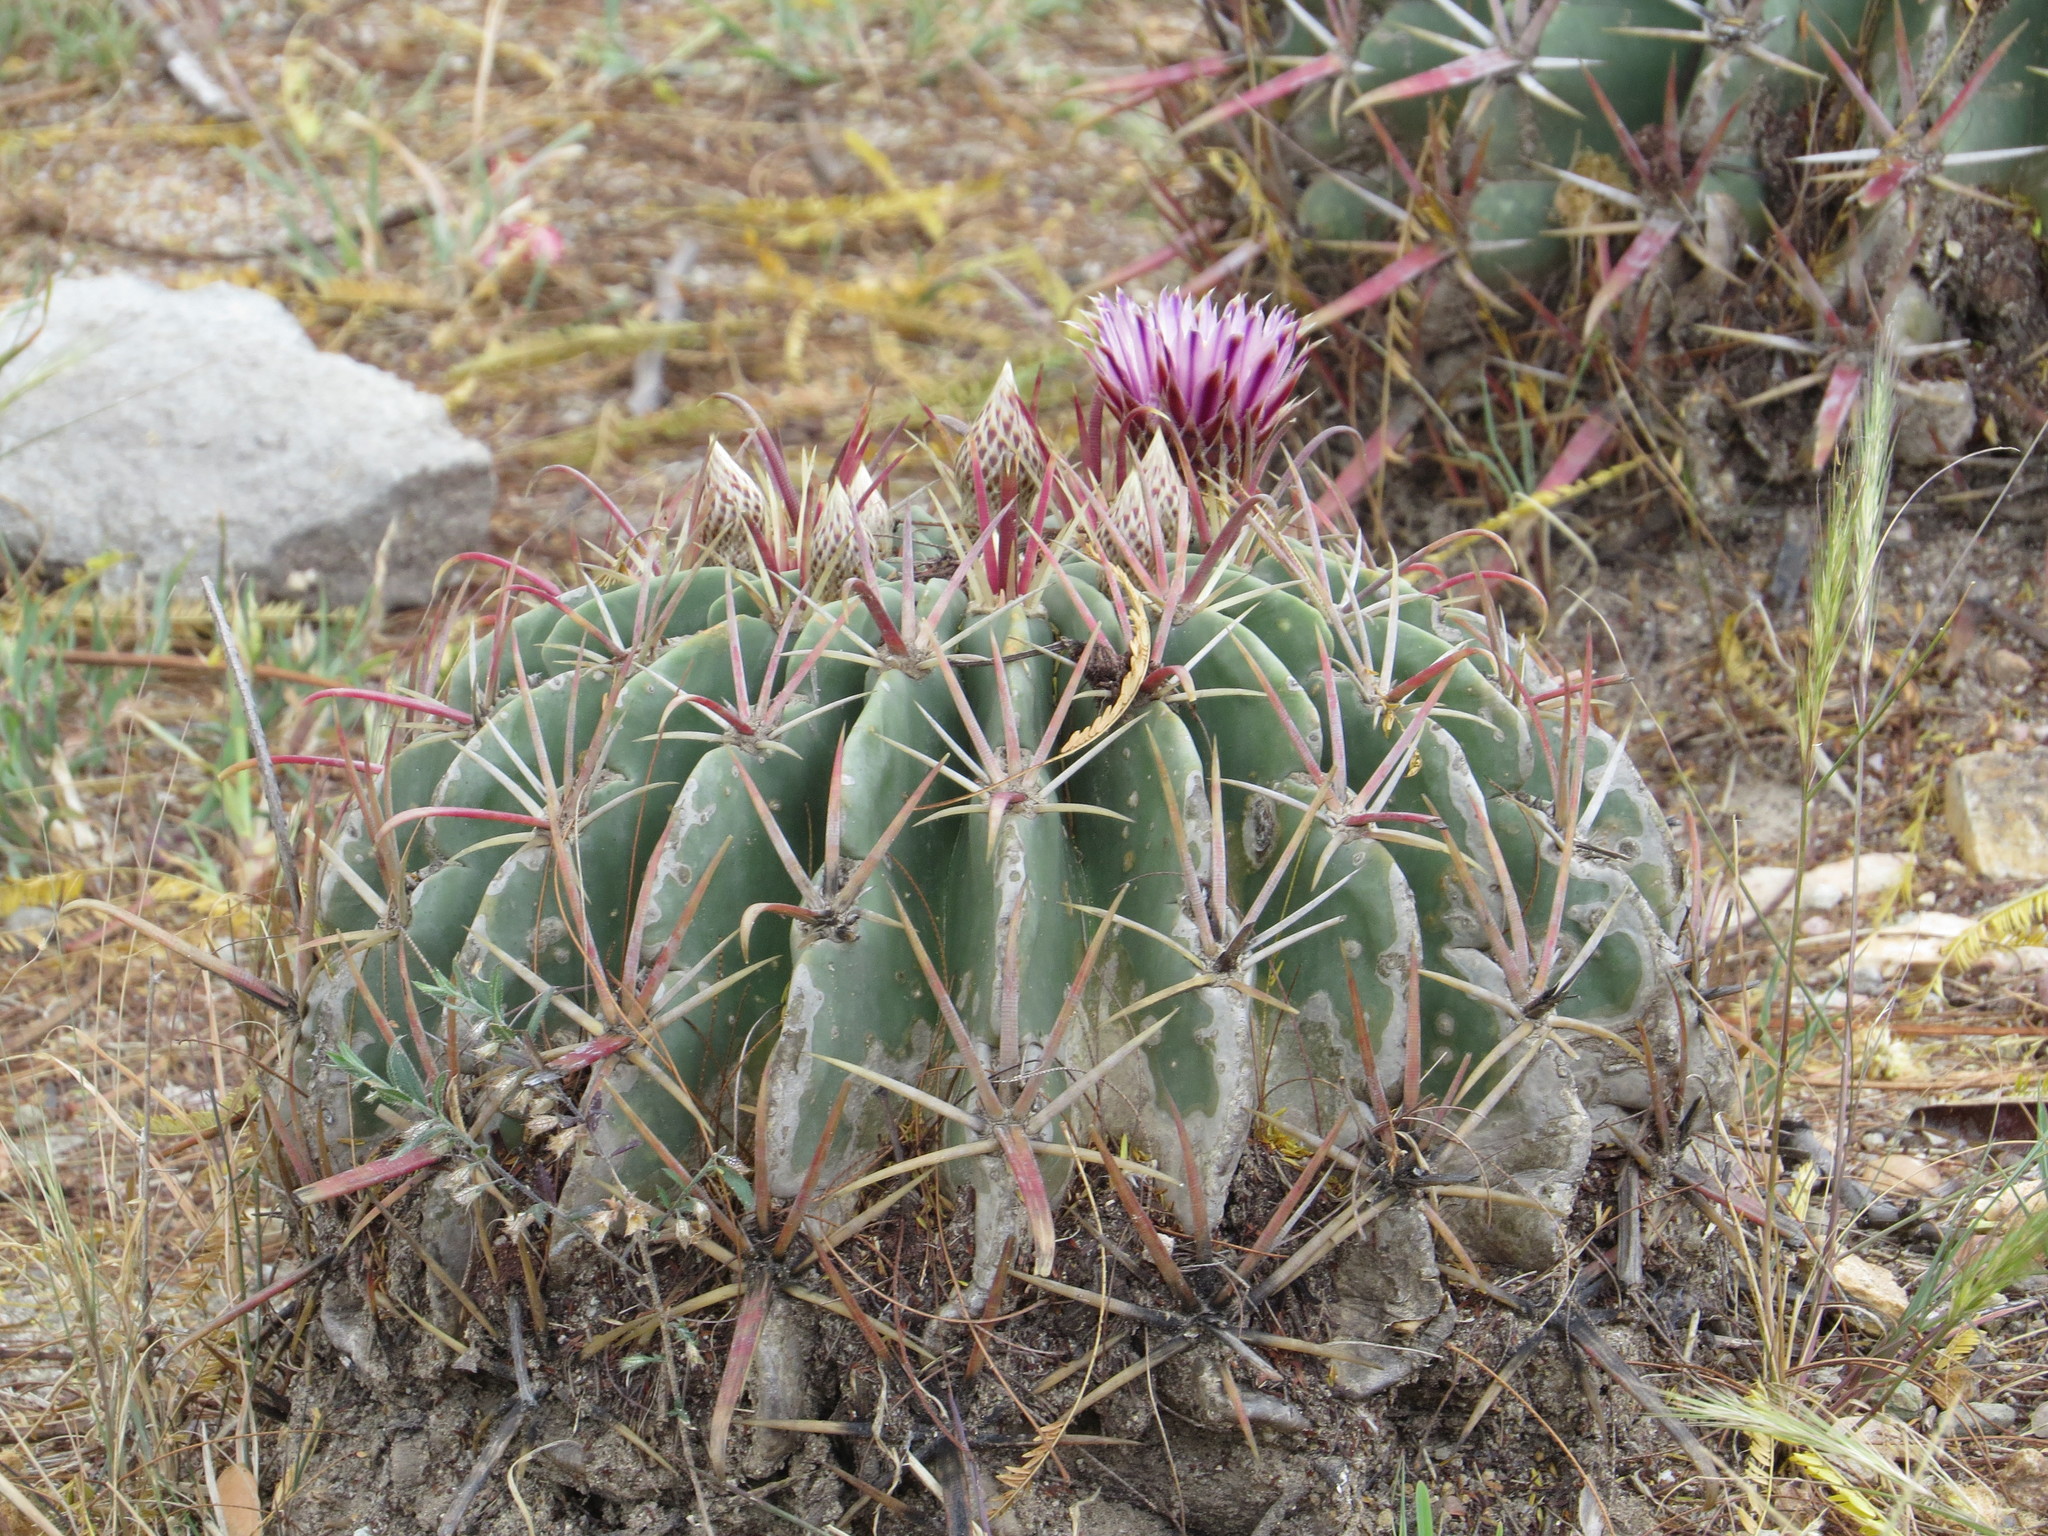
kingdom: Plantae
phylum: Tracheophyta
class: Magnoliopsida
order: Caryophyllales
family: Cactaceae
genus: Ferocactus
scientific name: Ferocactus latispinus
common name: Devil's-tongue cactus
